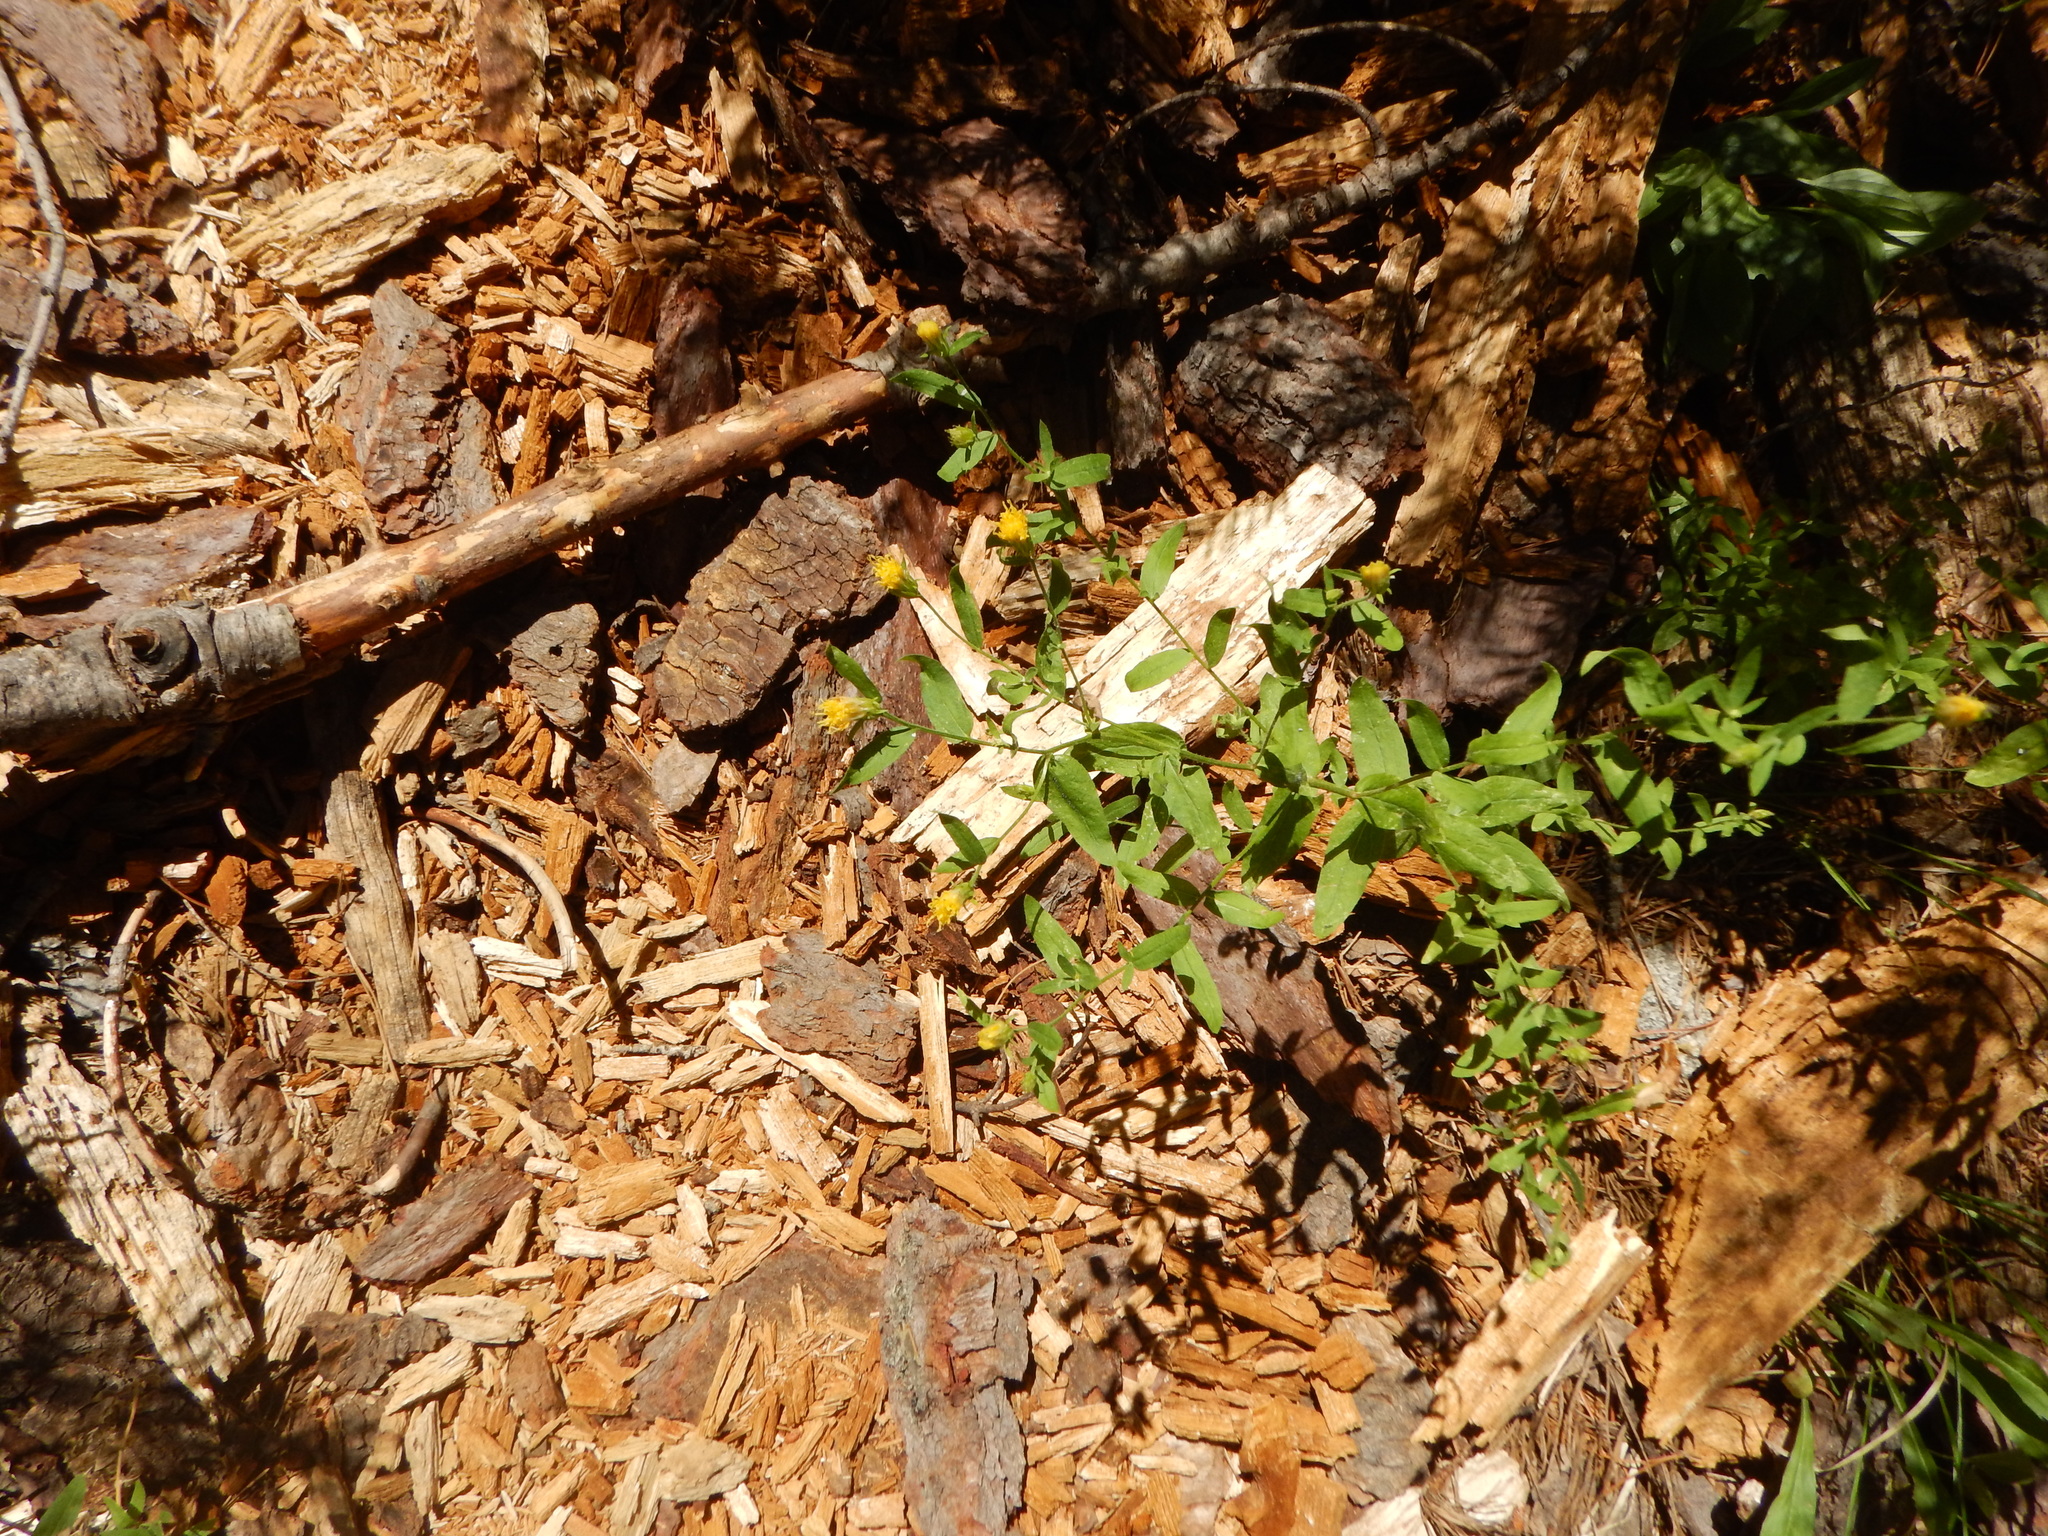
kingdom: Plantae
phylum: Tracheophyta
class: Magnoliopsida
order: Asterales
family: Asteraceae
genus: Eucephalus
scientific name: Eucephalus breweri
